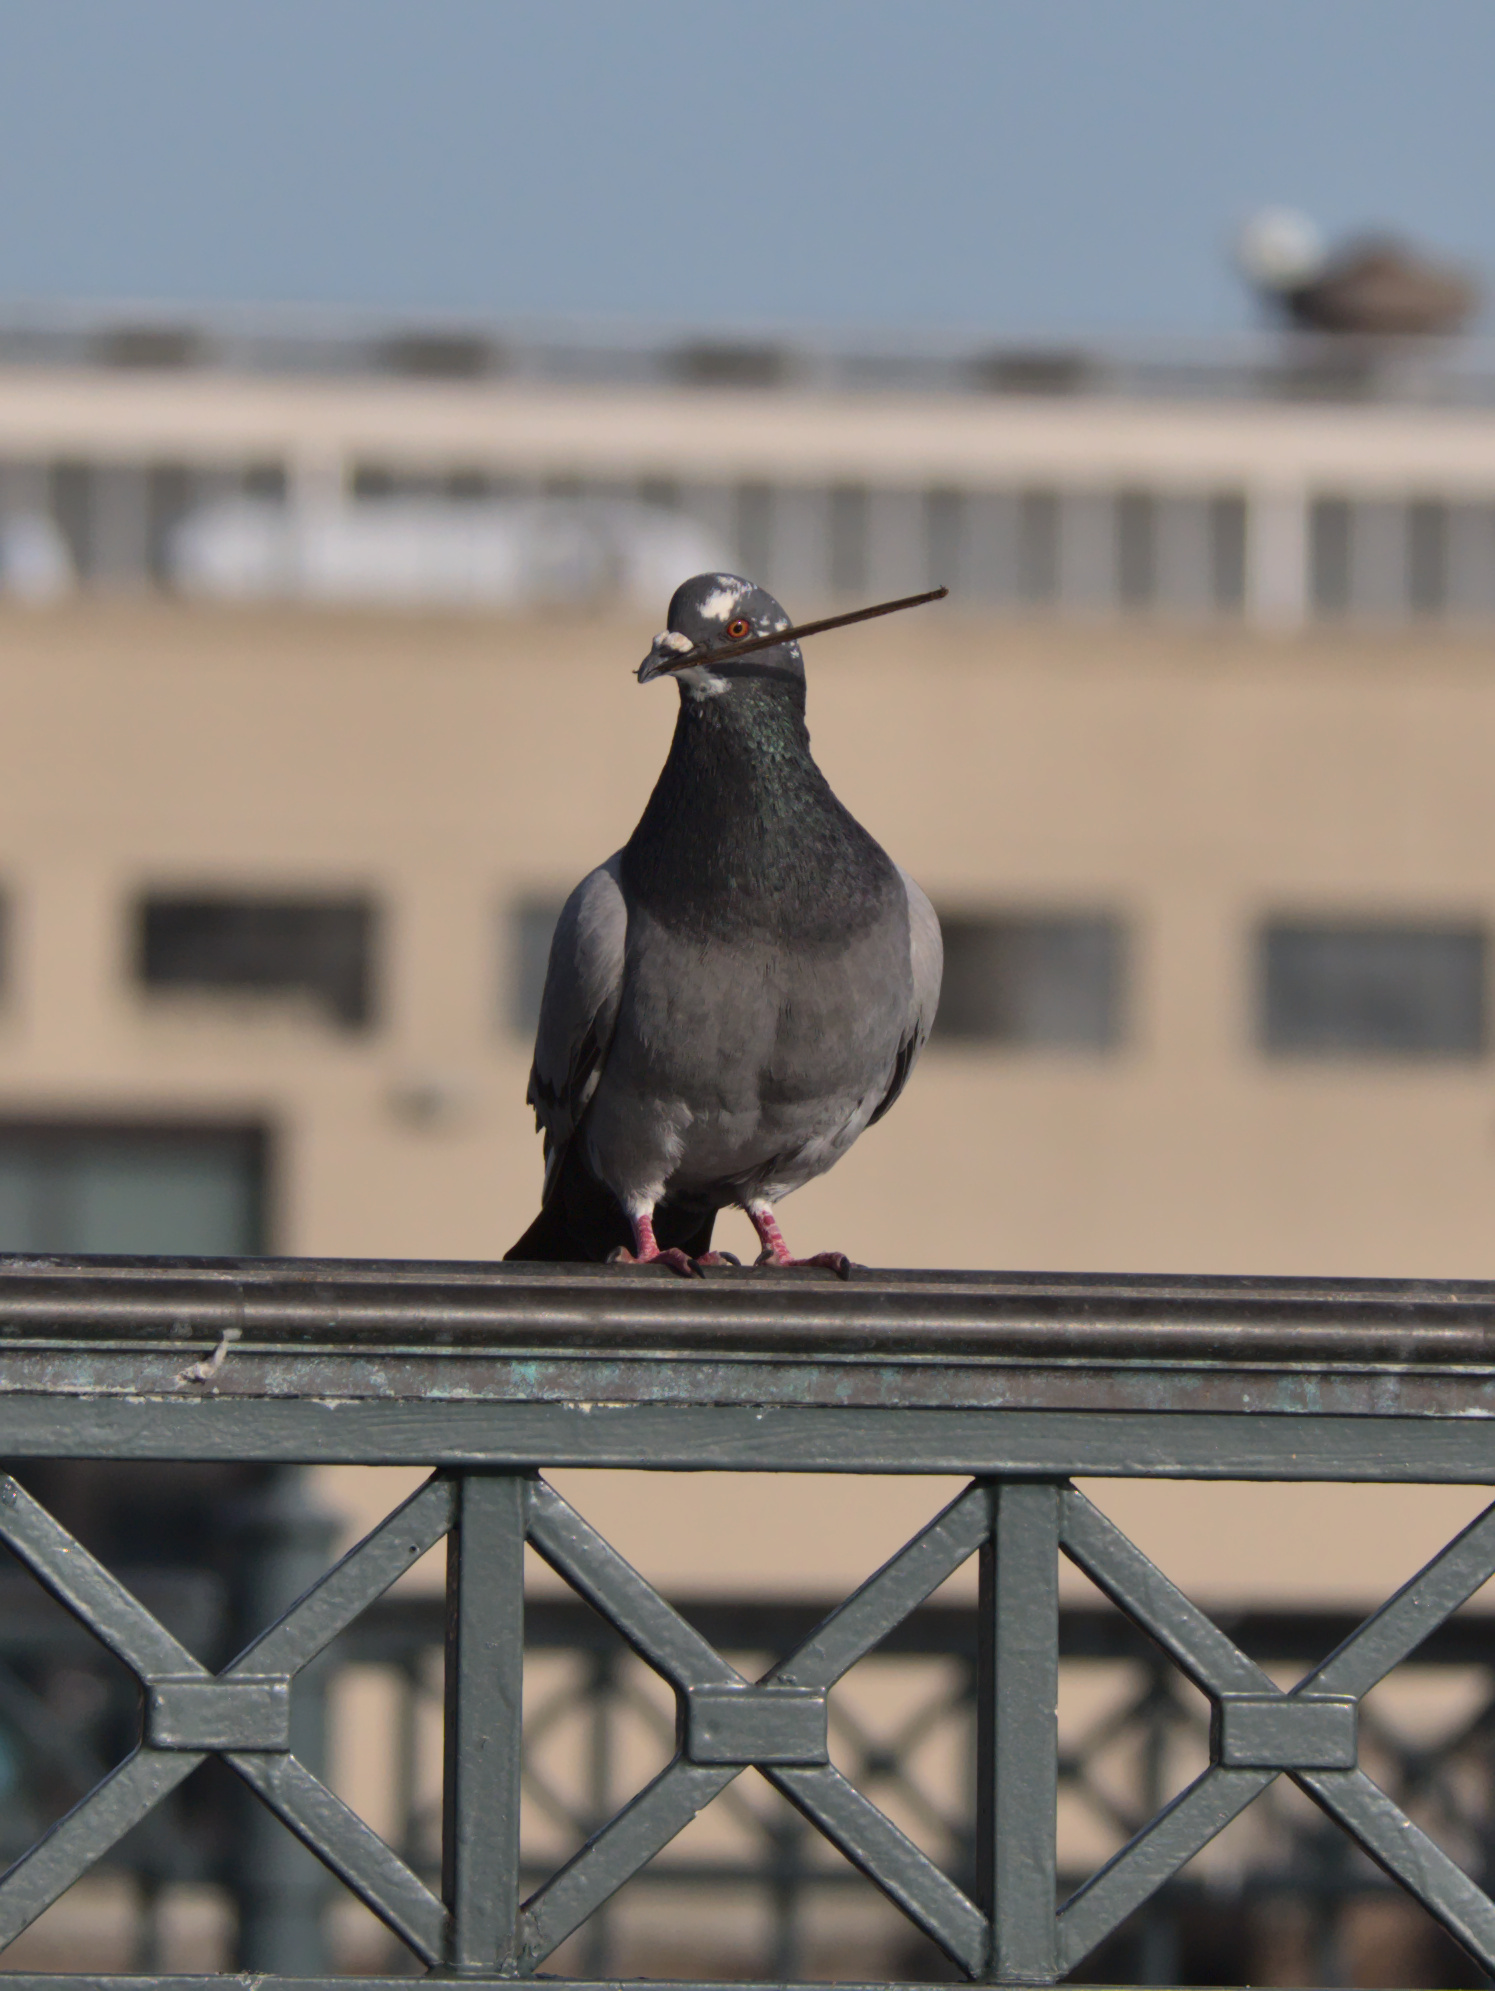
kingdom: Animalia
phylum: Chordata
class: Aves
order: Columbiformes
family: Columbidae
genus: Columba
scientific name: Columba livia
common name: Rock pigeon
